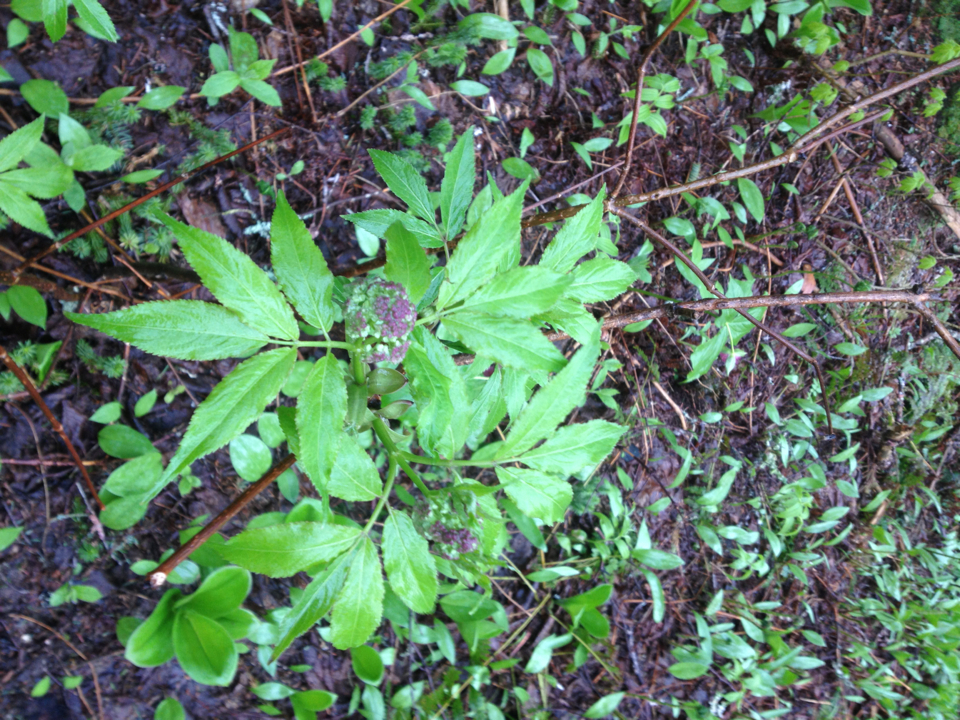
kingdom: Plantae
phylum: Tracheophyta
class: Magnoliopsida
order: Dipsacales
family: Viburnaceae
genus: Sambucus
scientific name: Sambucus racemosa
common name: Red-berried elder
